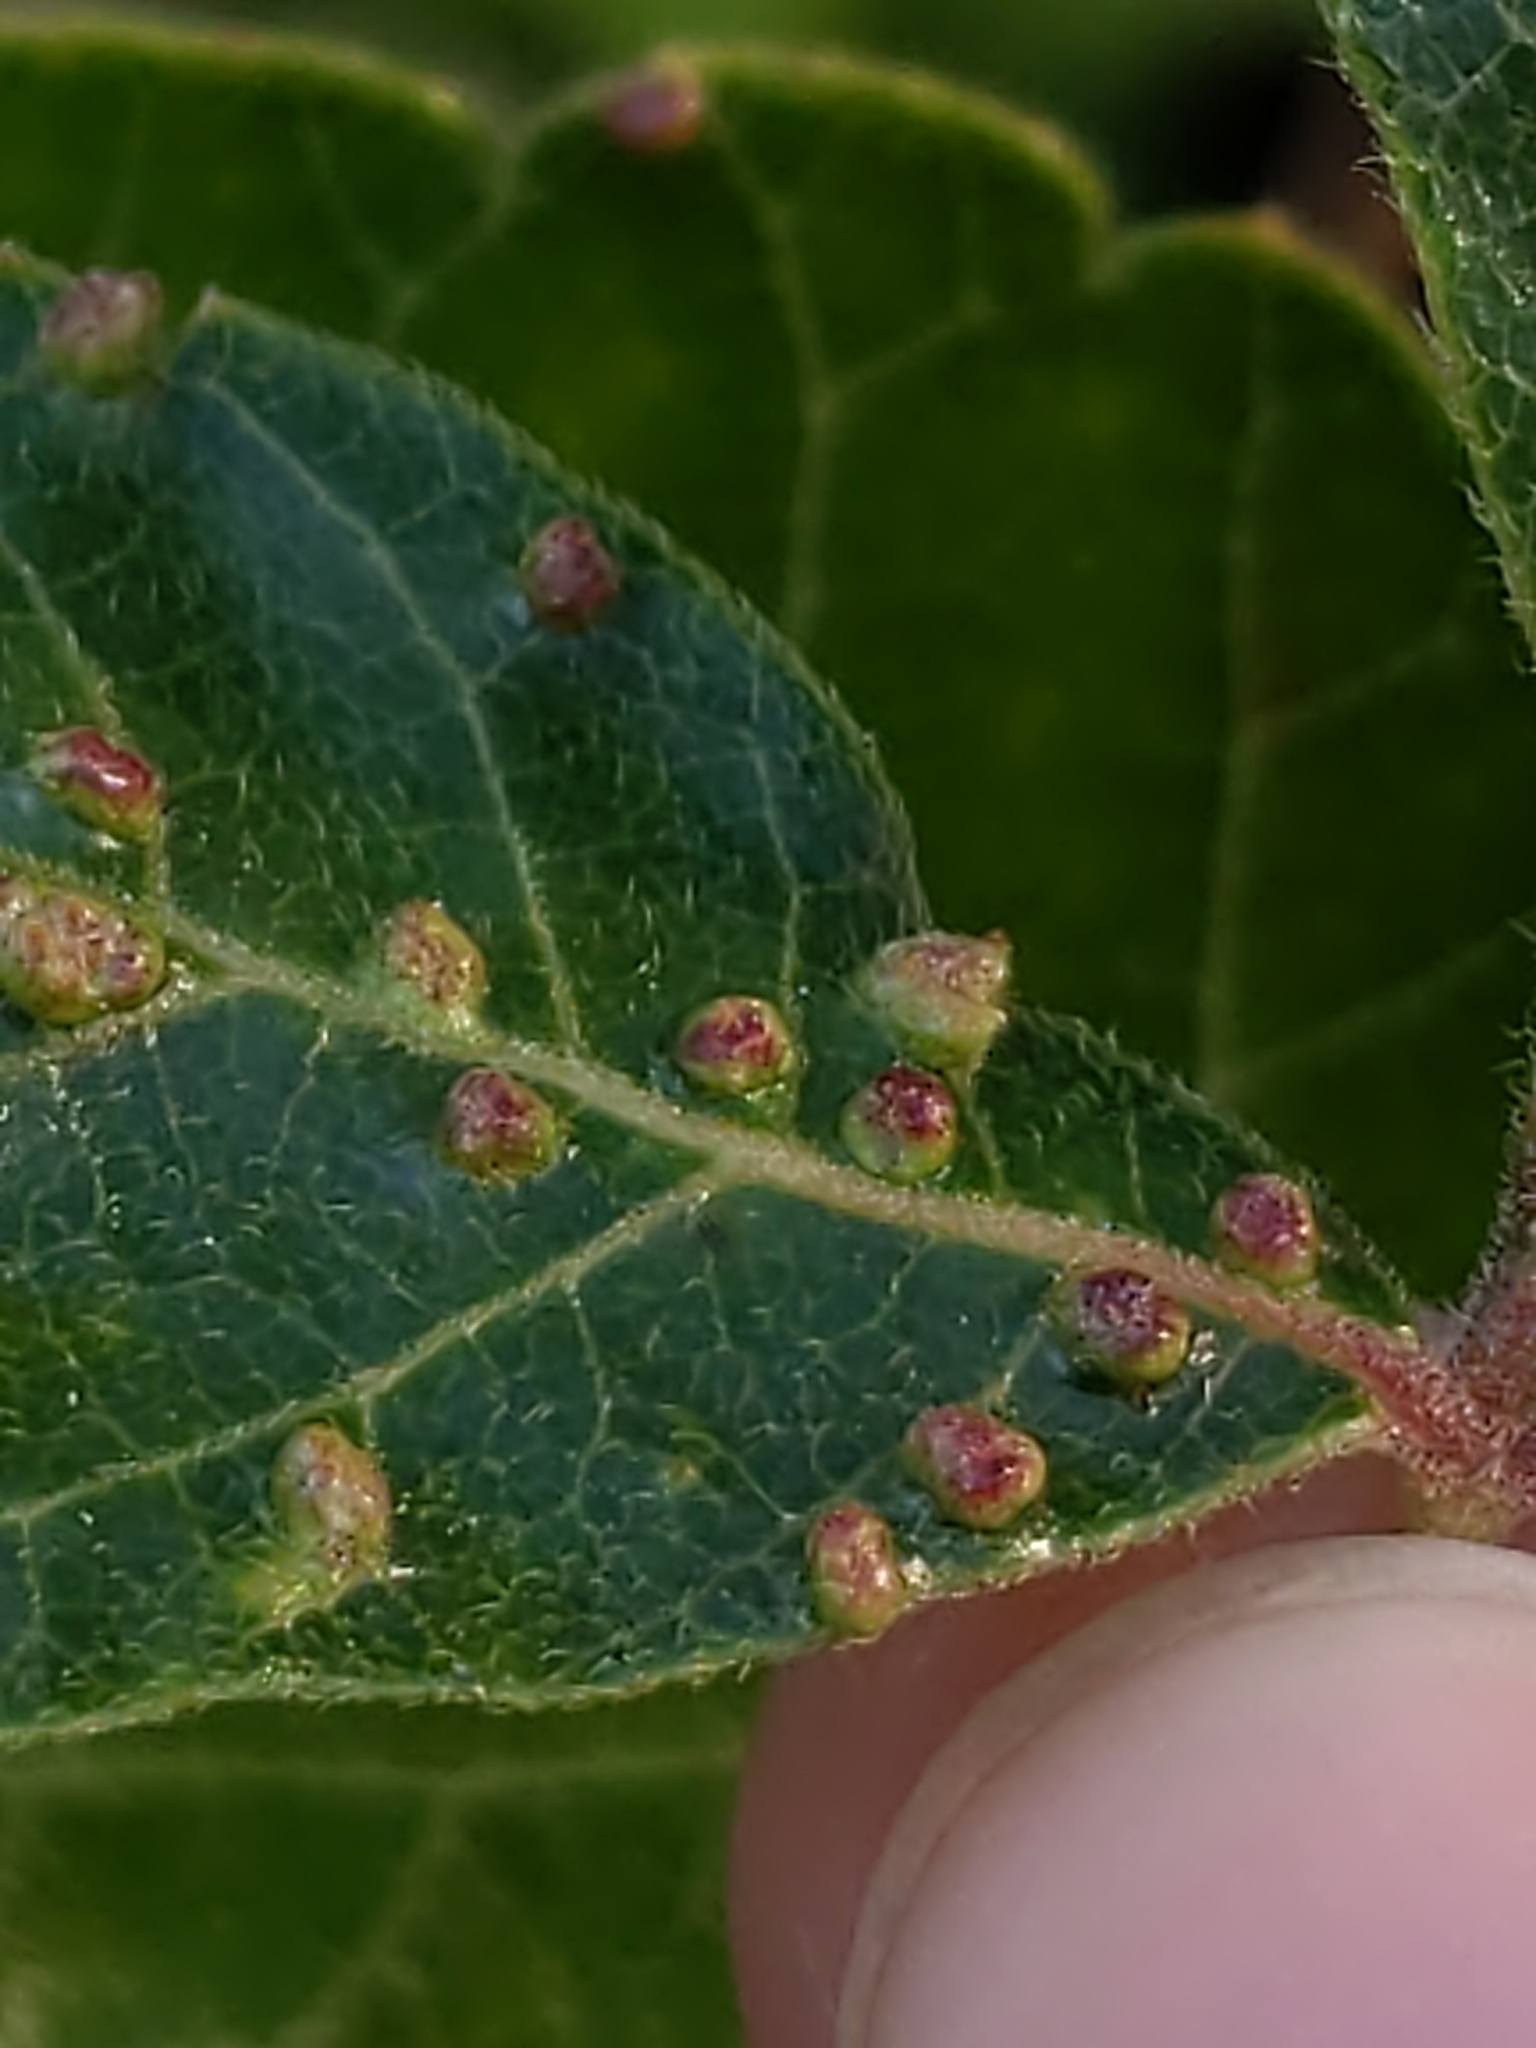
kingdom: Animalia
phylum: Arthropoda
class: Arachnida
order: Trombidiformes
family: Eriophyidae
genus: Aculops
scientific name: Aculops
